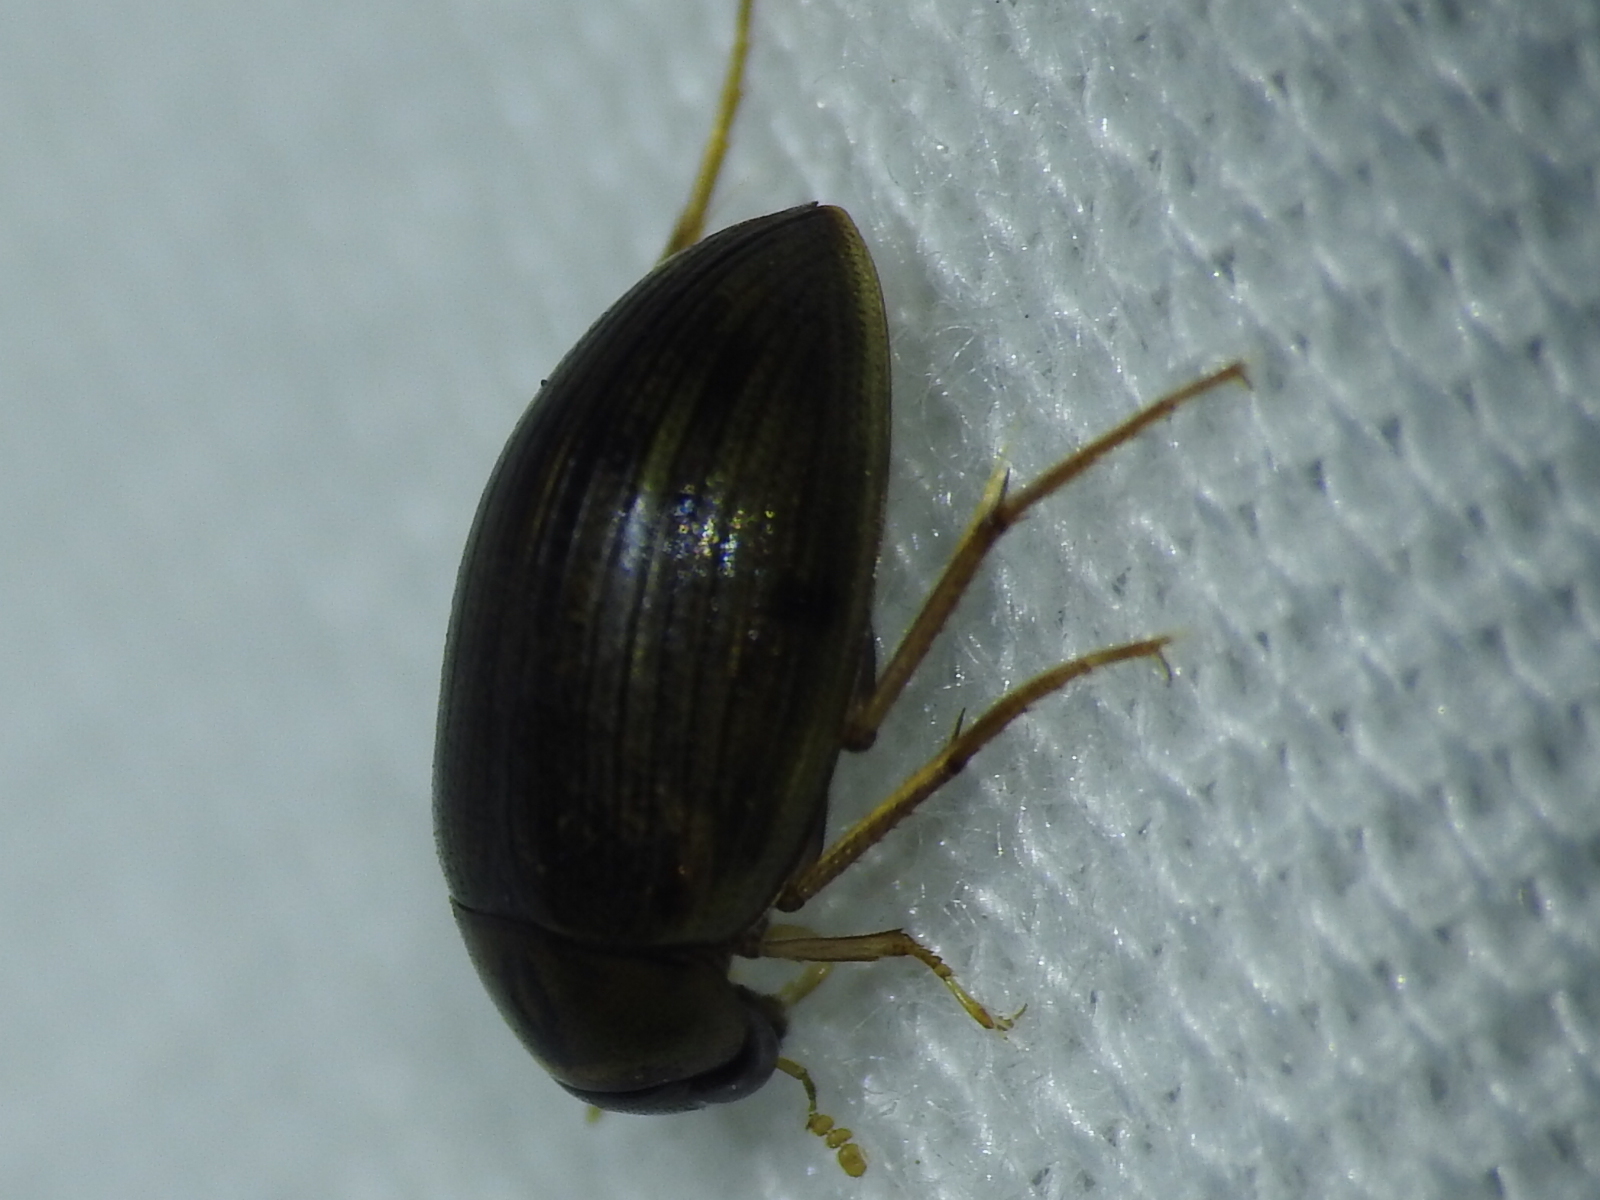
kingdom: Animalia
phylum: Arthropoda
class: Insecta
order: Coleoptera
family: Hydrophilidae
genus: Berosus
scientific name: Berosus
